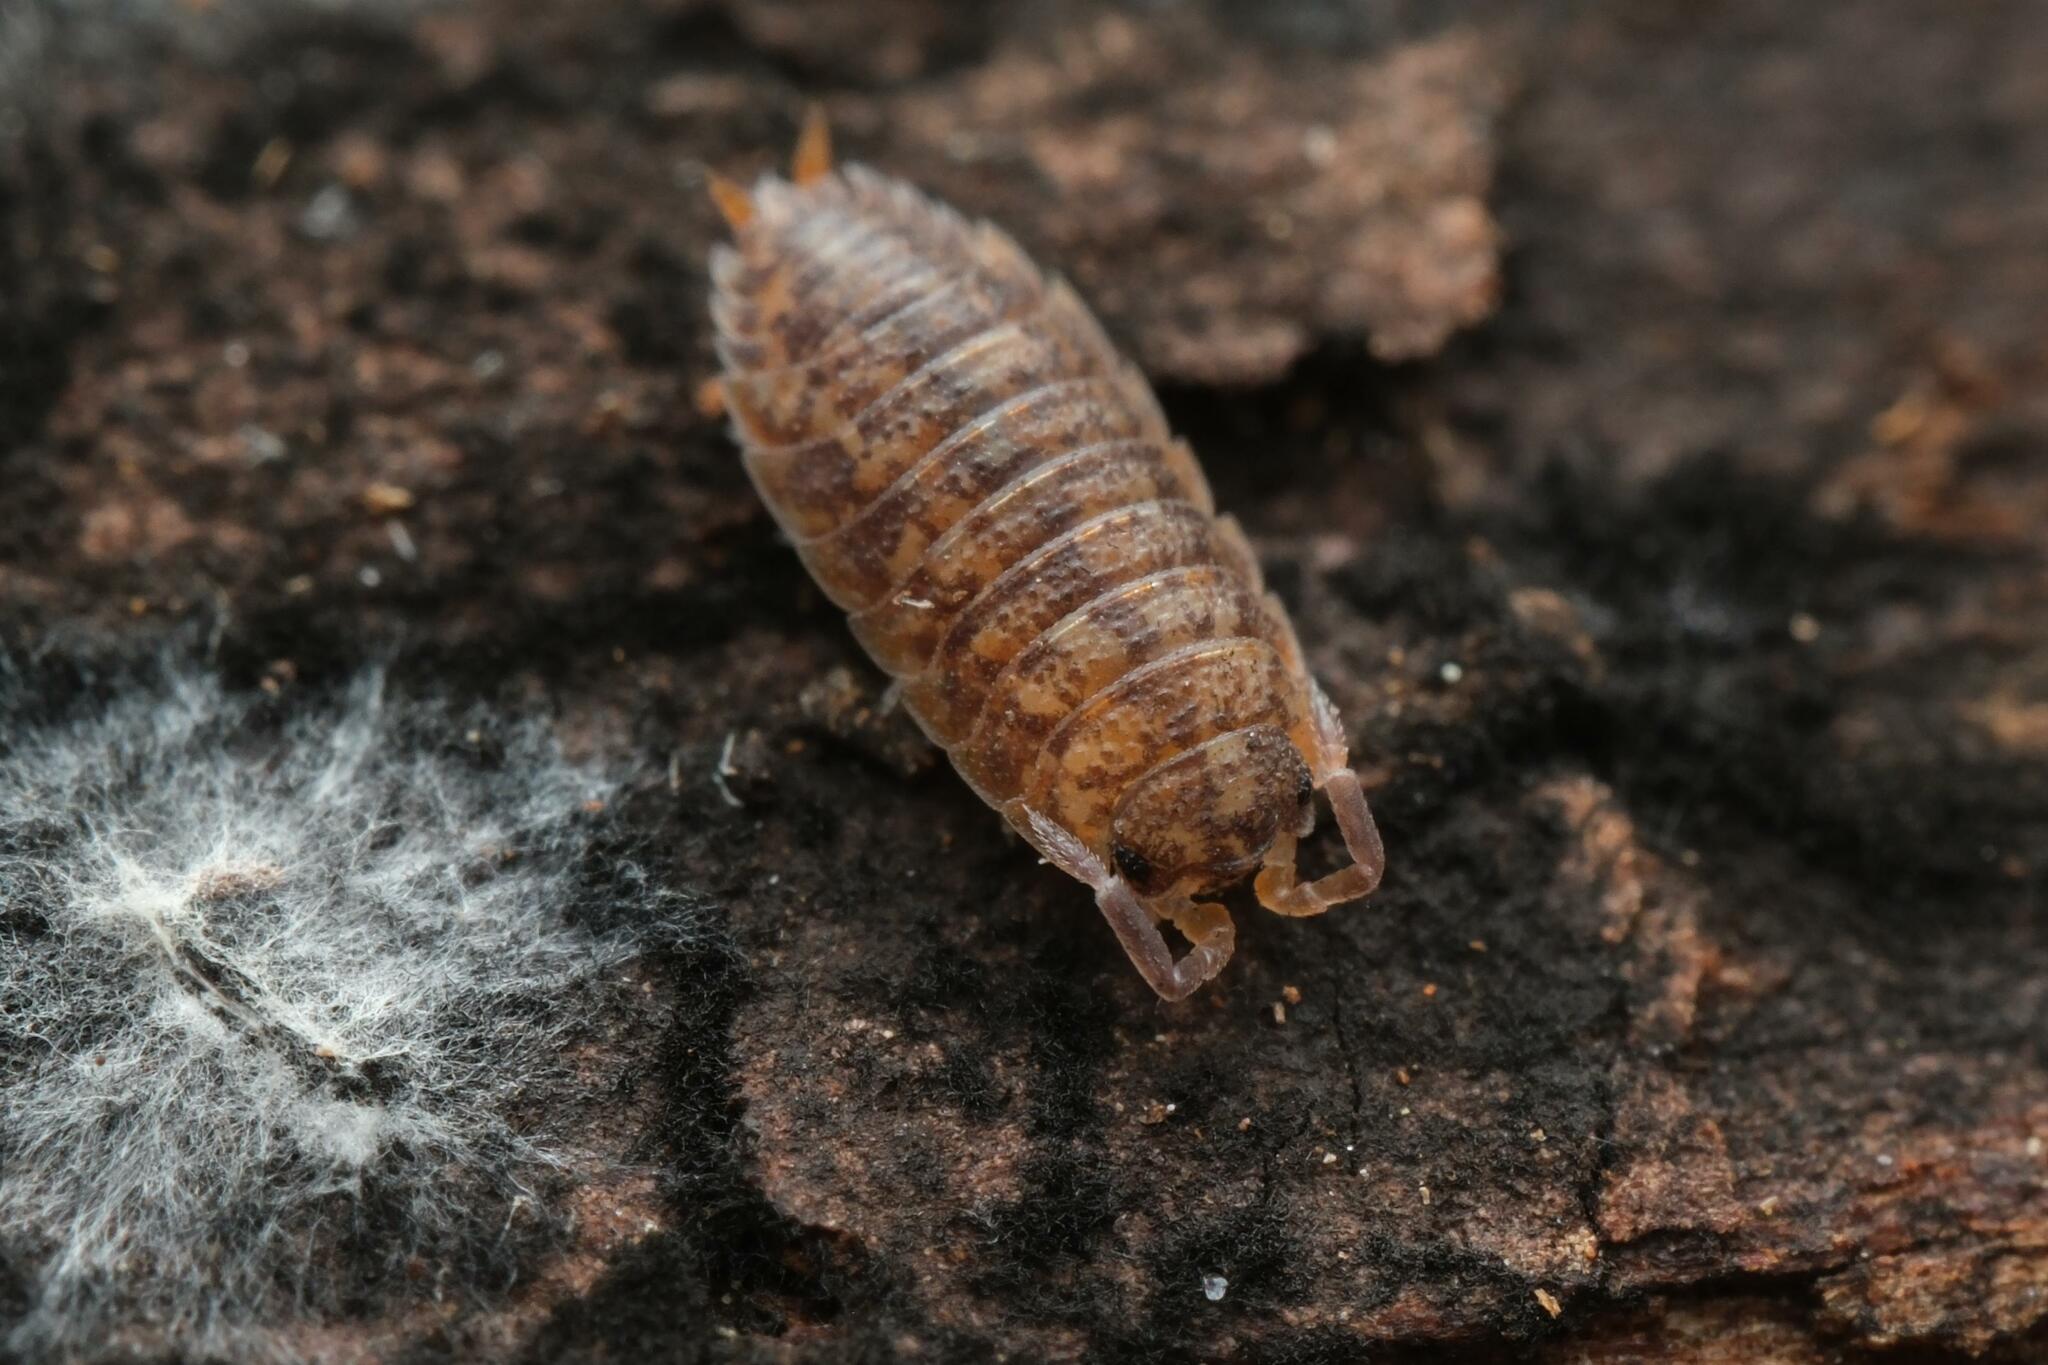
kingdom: Animalia
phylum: Arthropoda
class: Malacostraca
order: Isopoda
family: Porcellionidae
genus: Porcellio
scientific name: Porcellio scaber
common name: Common rough woodlouse
